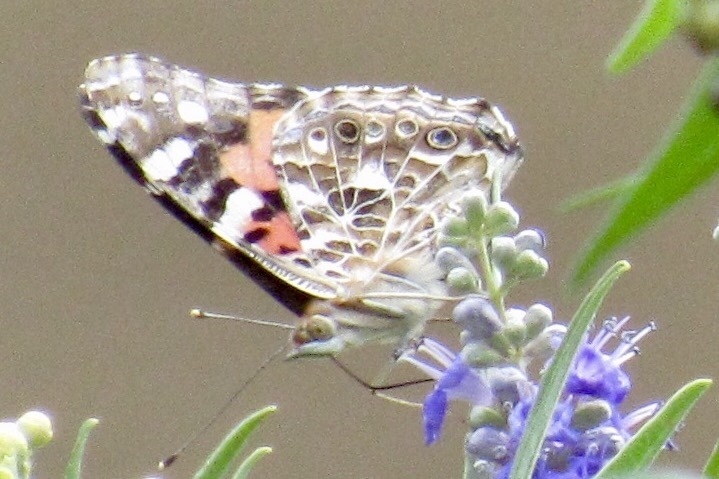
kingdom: Animalia
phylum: Arthropoda
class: Insecta
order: Lepidoptera
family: Nymphalidae
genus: Vanessa
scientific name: Vanessa cardui
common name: Painted lady
